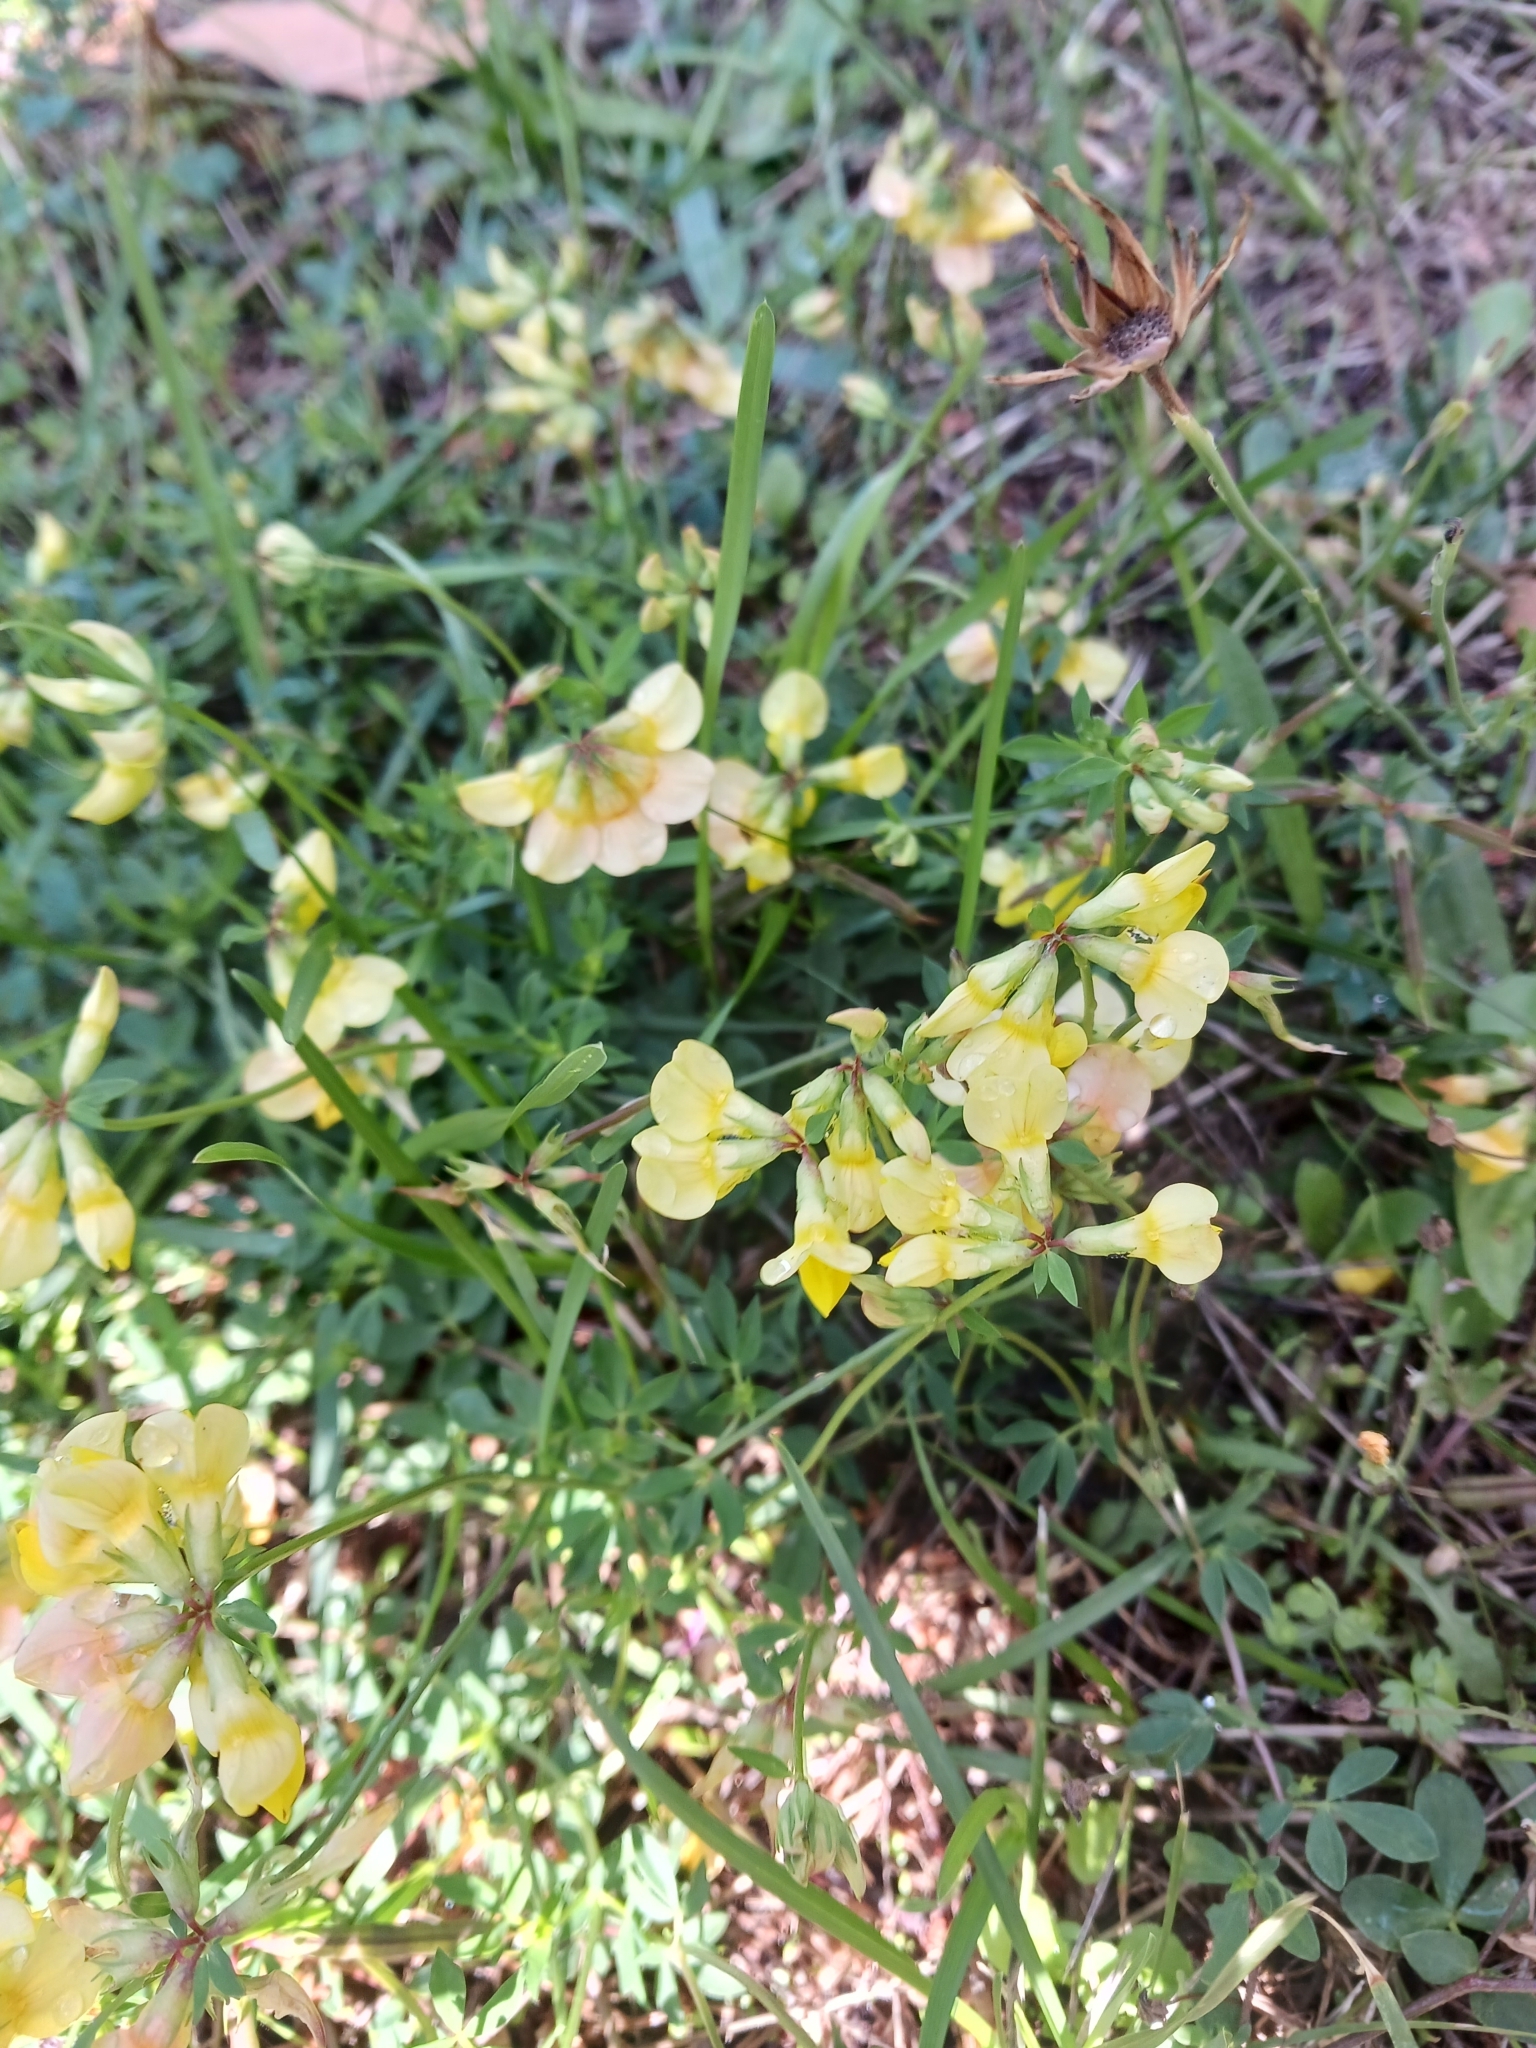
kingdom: Plantae
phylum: Tracheophyta
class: Magnoliopsida
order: Fabales
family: Fabaceae
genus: Lotus
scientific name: Lotus corniculatus
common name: Common bird's-foot-trefoil
